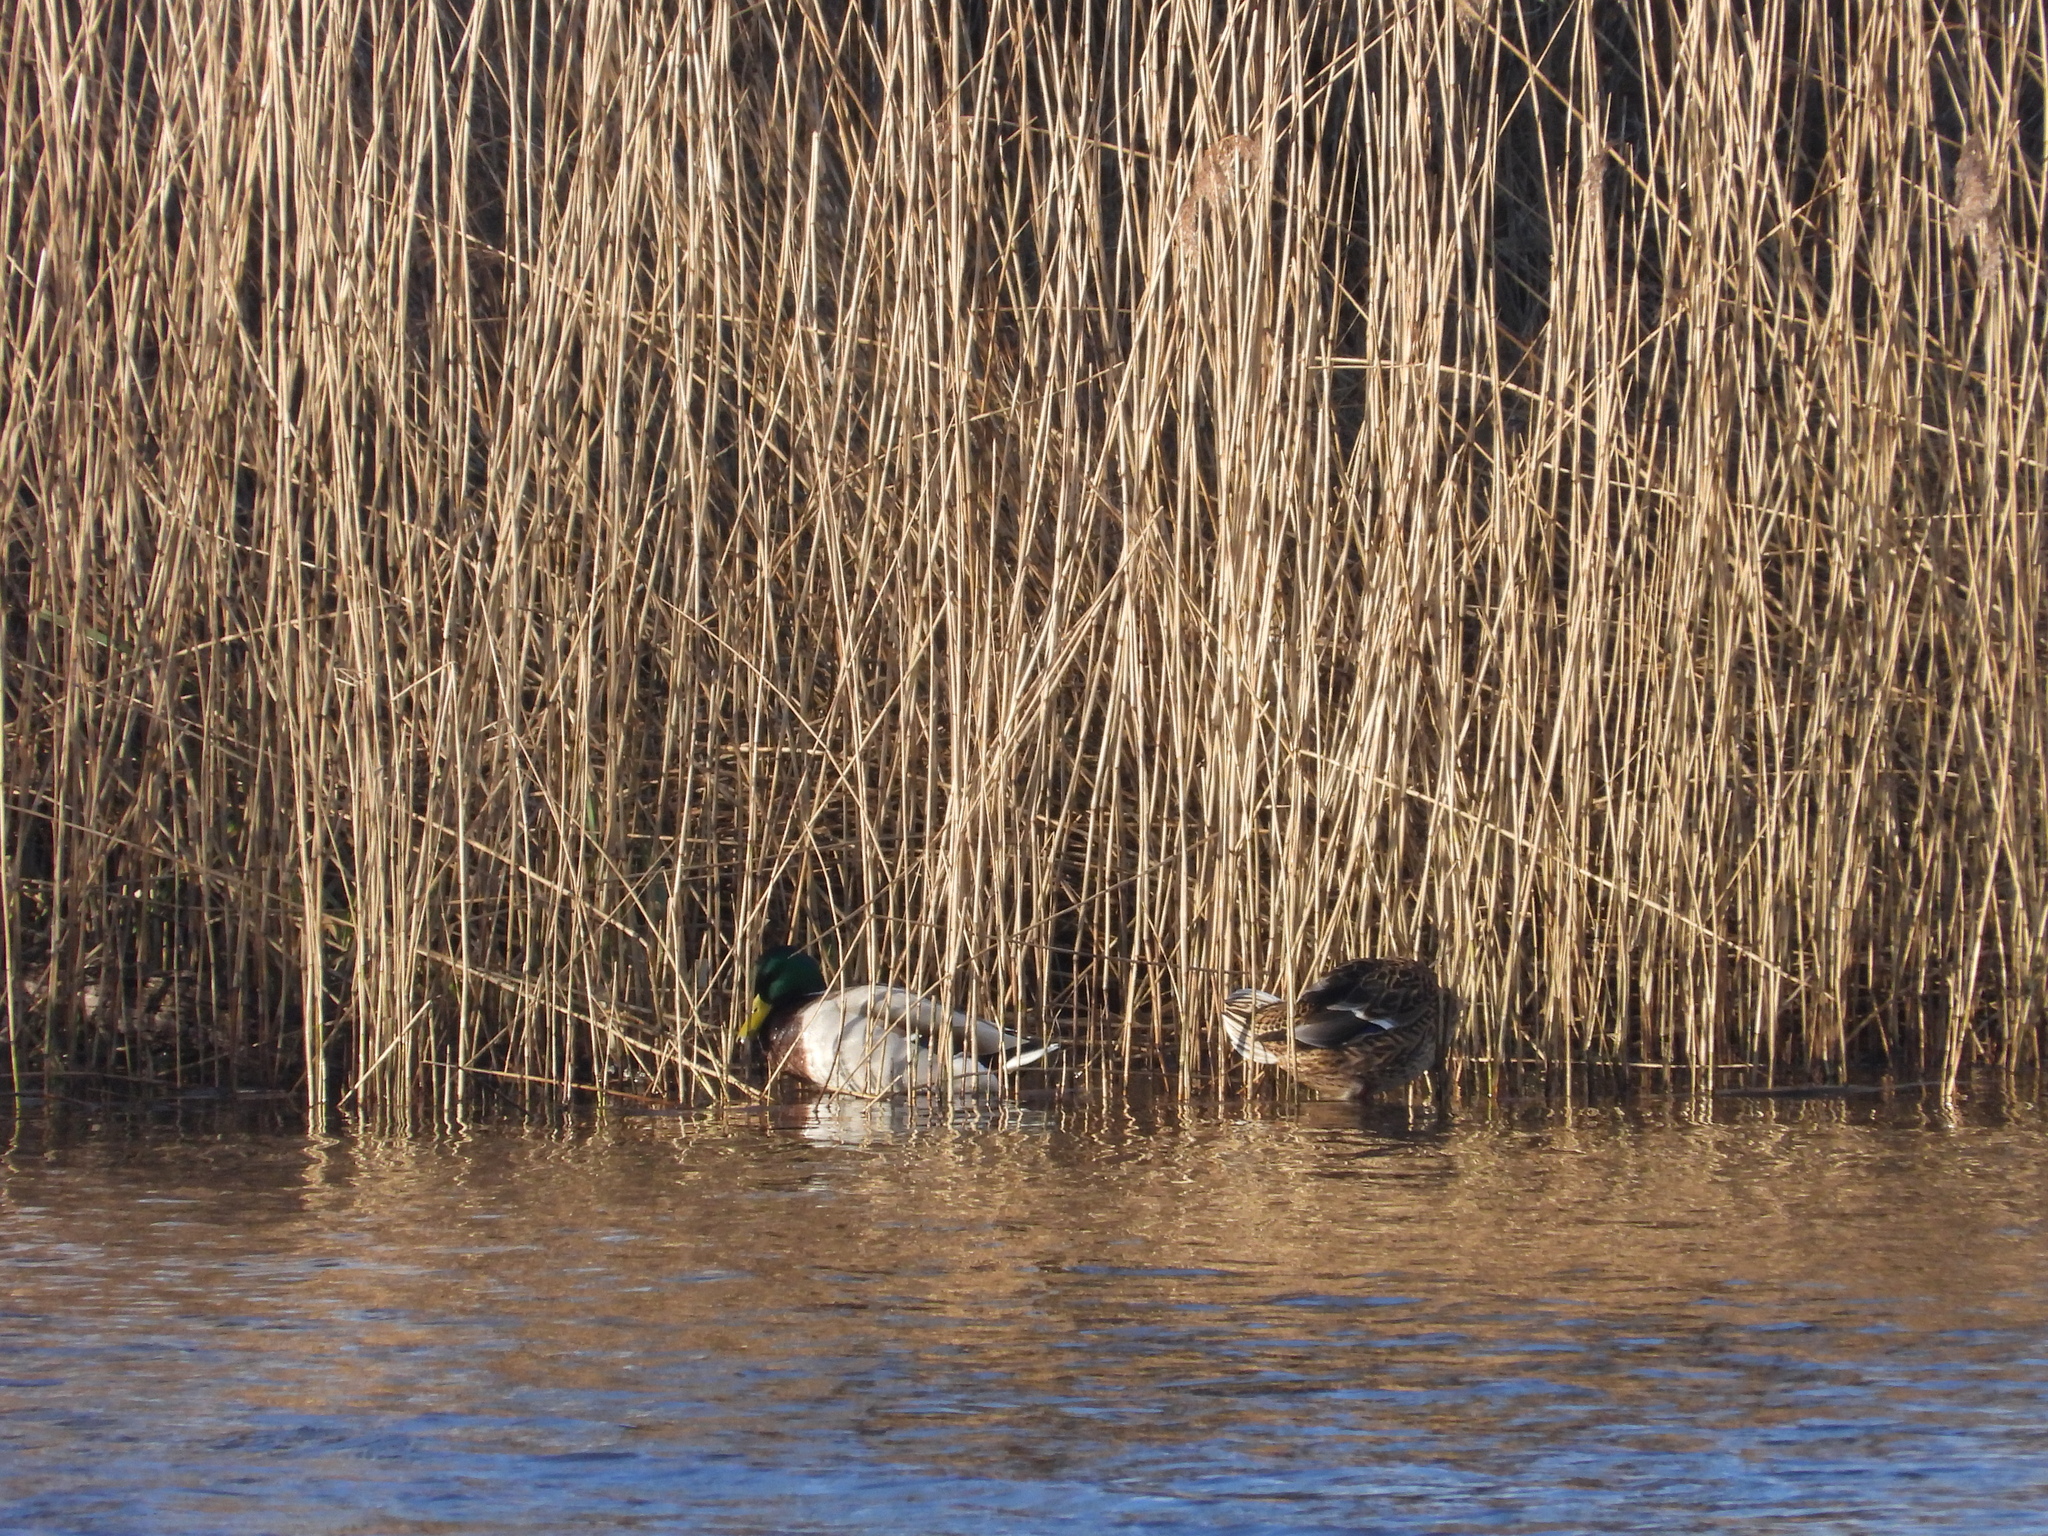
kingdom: Animalia
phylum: Chordata
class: Aves
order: Anseriformes
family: Anatidae
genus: Anas
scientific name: Anas platyrhynchos
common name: Mallard
